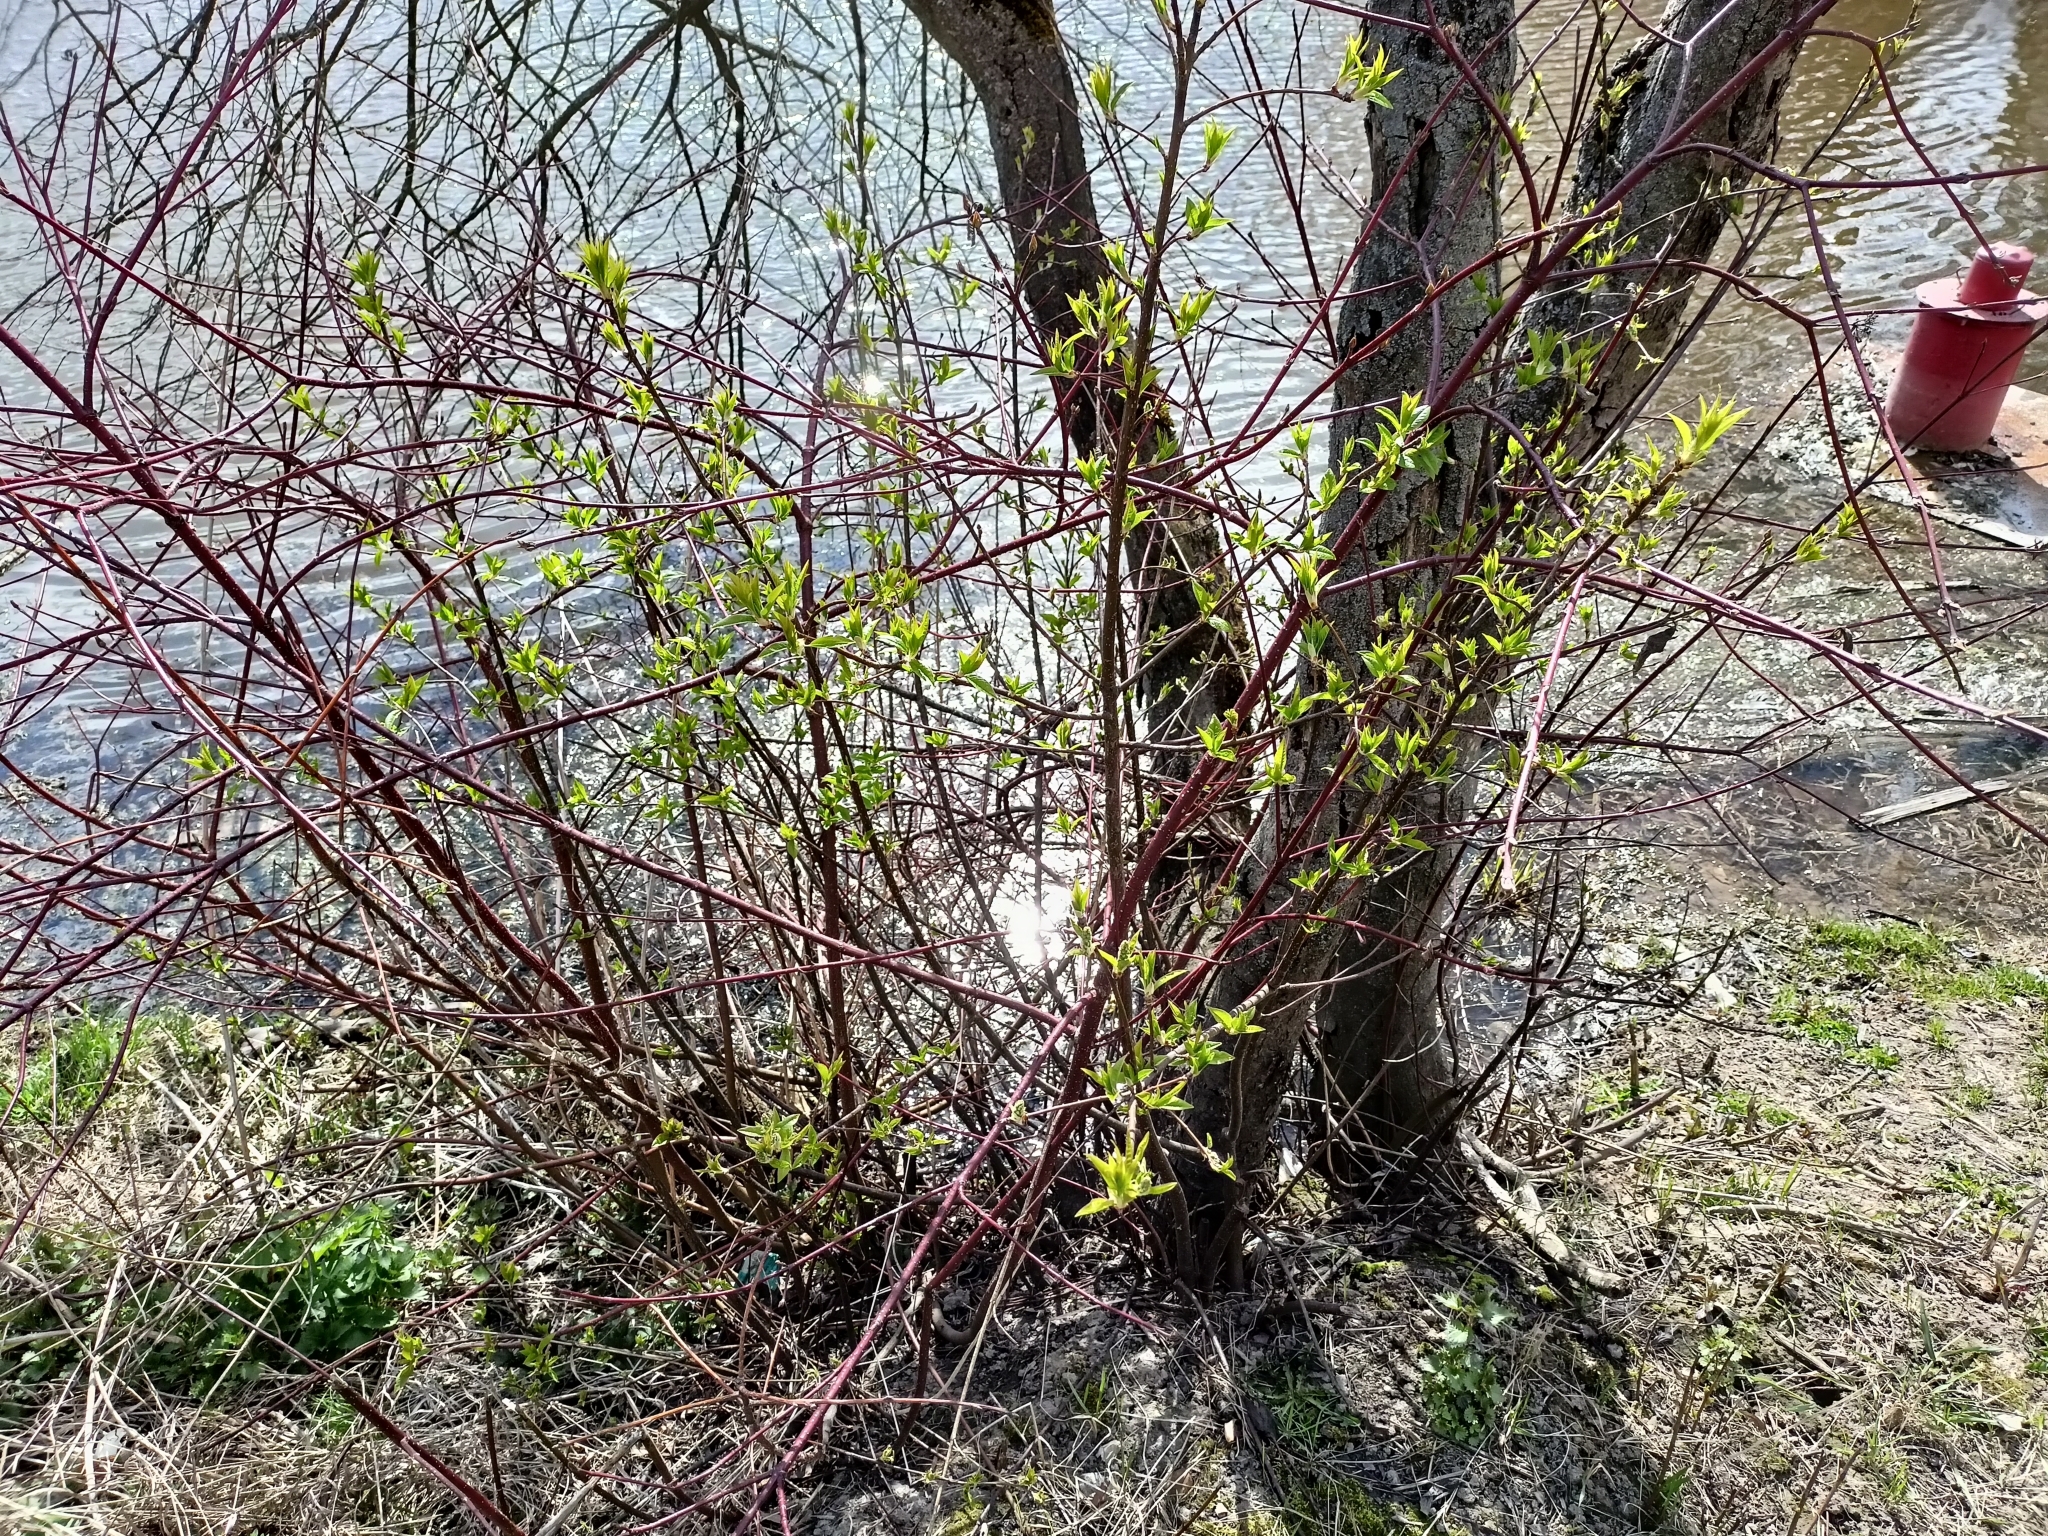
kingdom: Plantae
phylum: Tracheophyta
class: Magnoliopsida
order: Cornales
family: Cornaceae
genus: Cornus
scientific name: Cornus alba
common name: White dogwood
